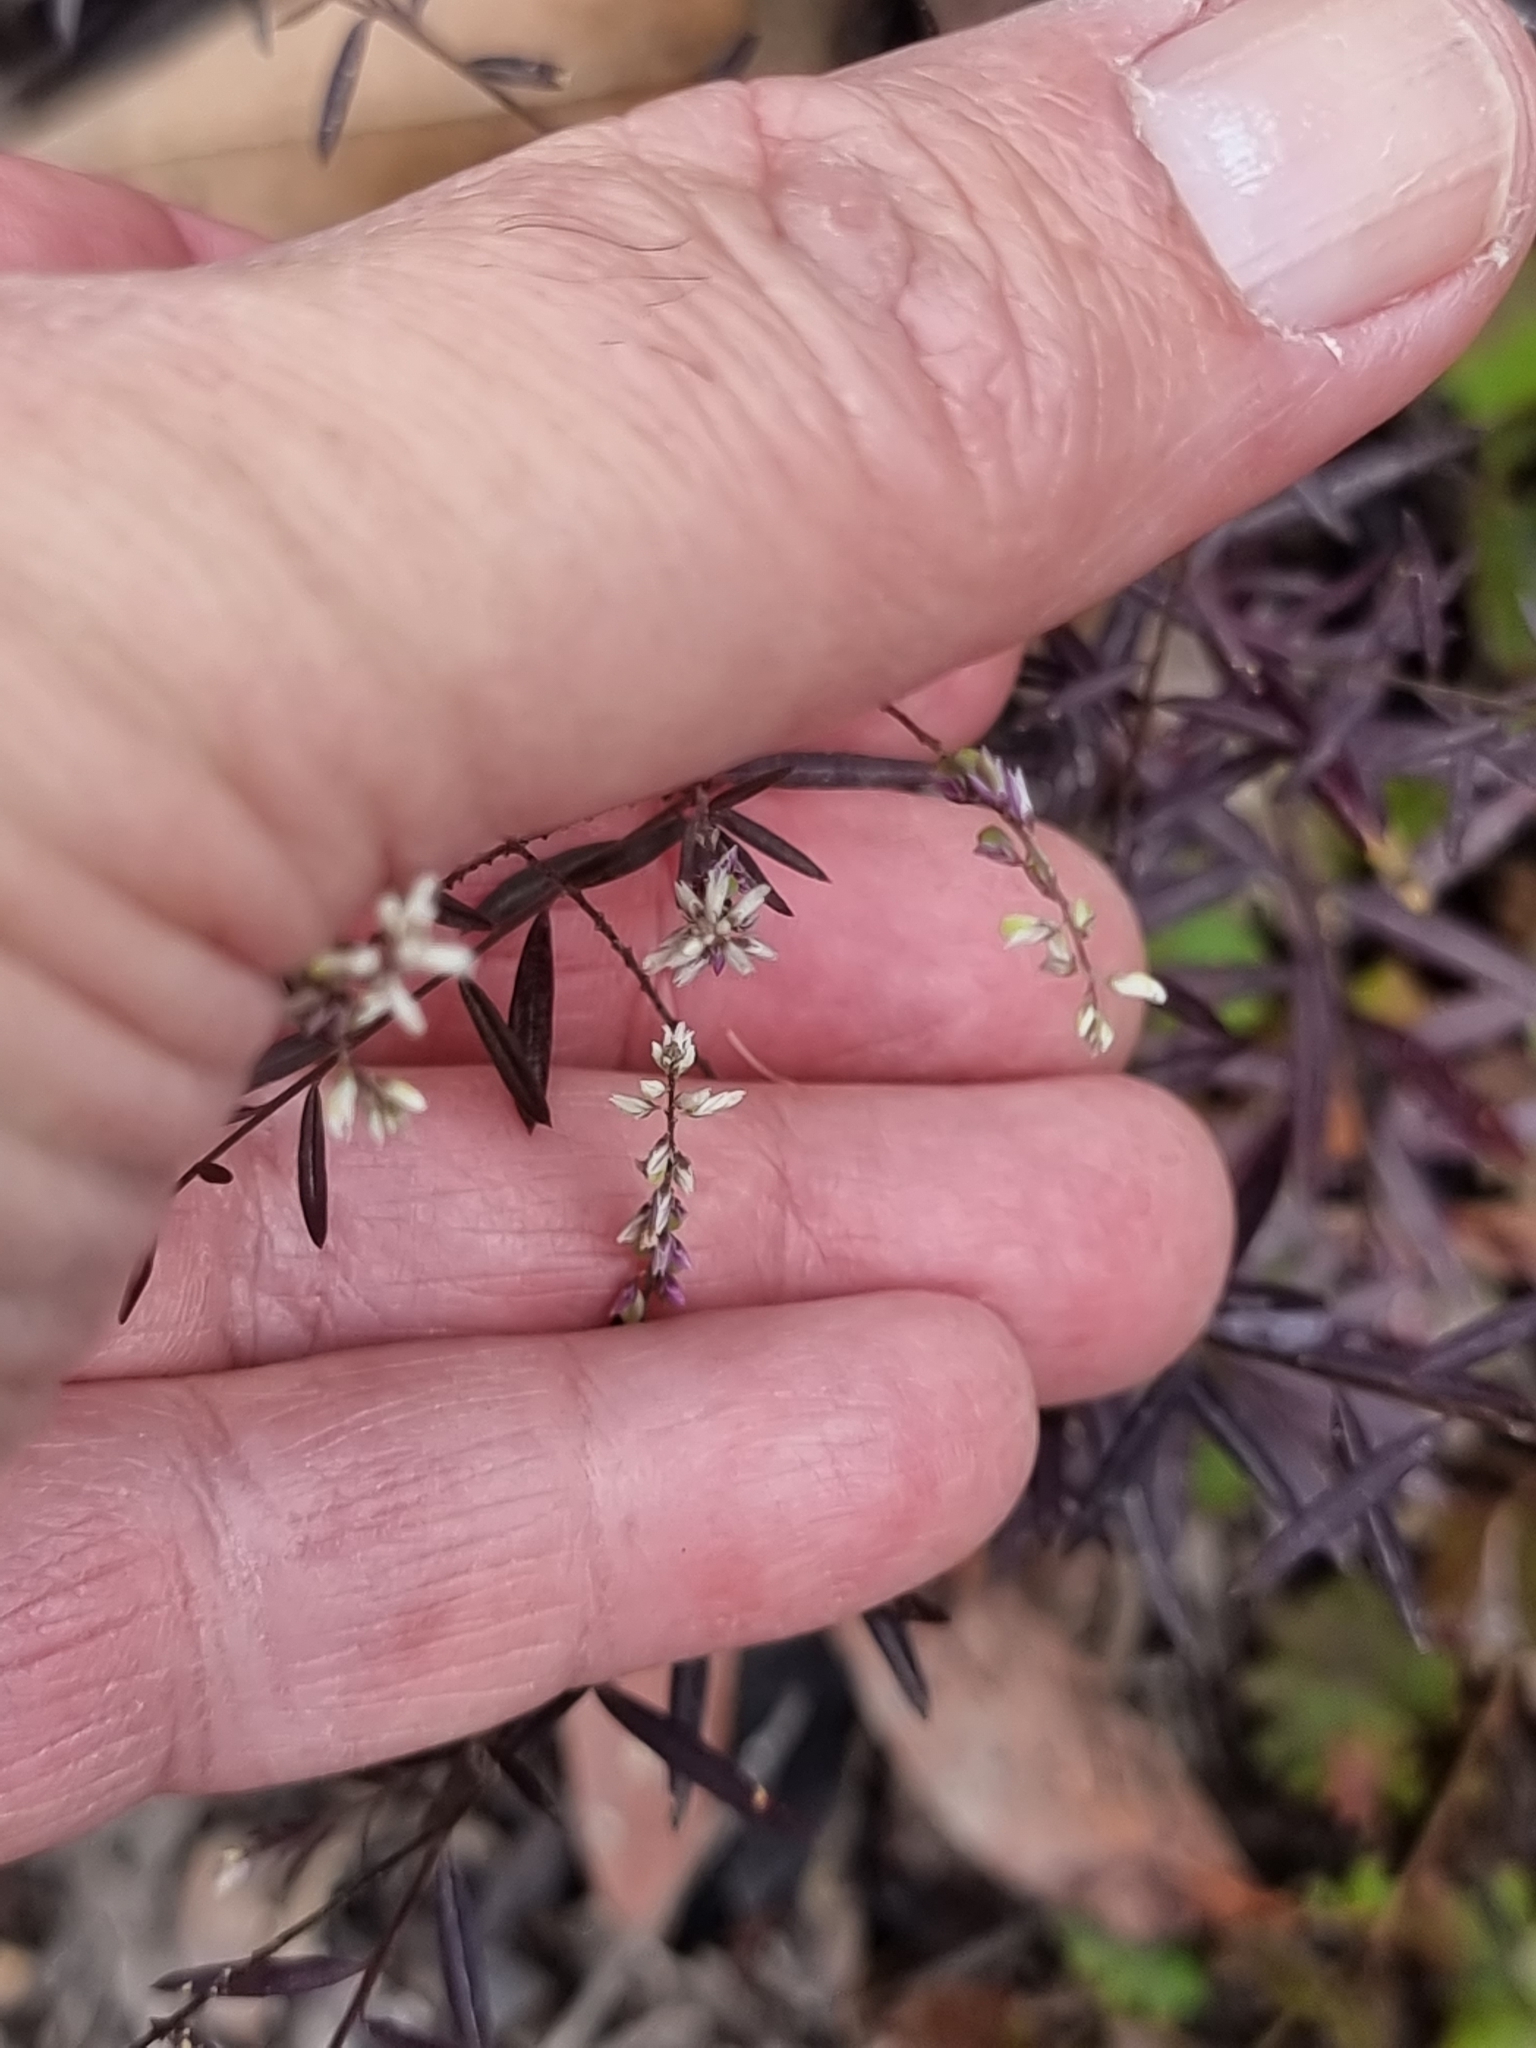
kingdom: Plantae
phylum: Tracheophyta
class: Magnoliopsida
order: Fabales
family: Polygalaceae
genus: Polygala
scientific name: Polygala paniculata
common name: Orosne
